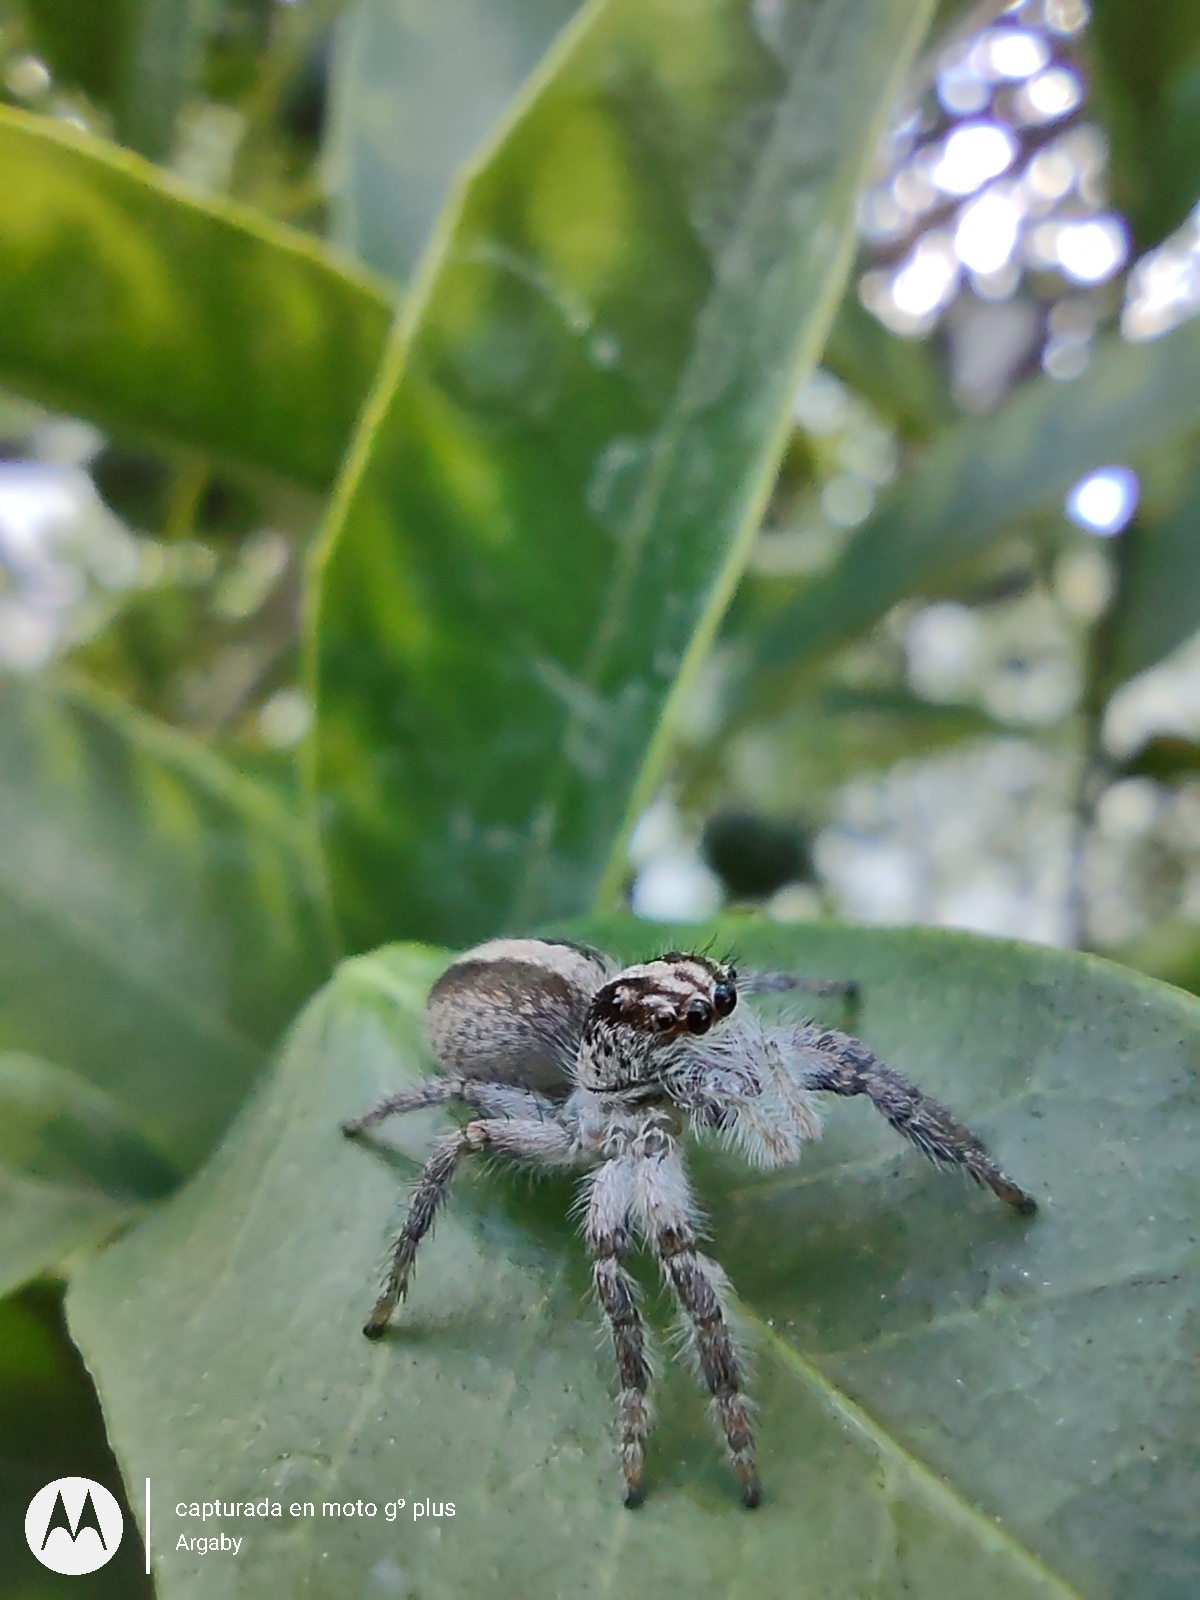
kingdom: Animalia
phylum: Arthropoda
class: Arachnida
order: Araneae
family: Salticidae
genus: Megafreya
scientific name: Megafreya sutrix
